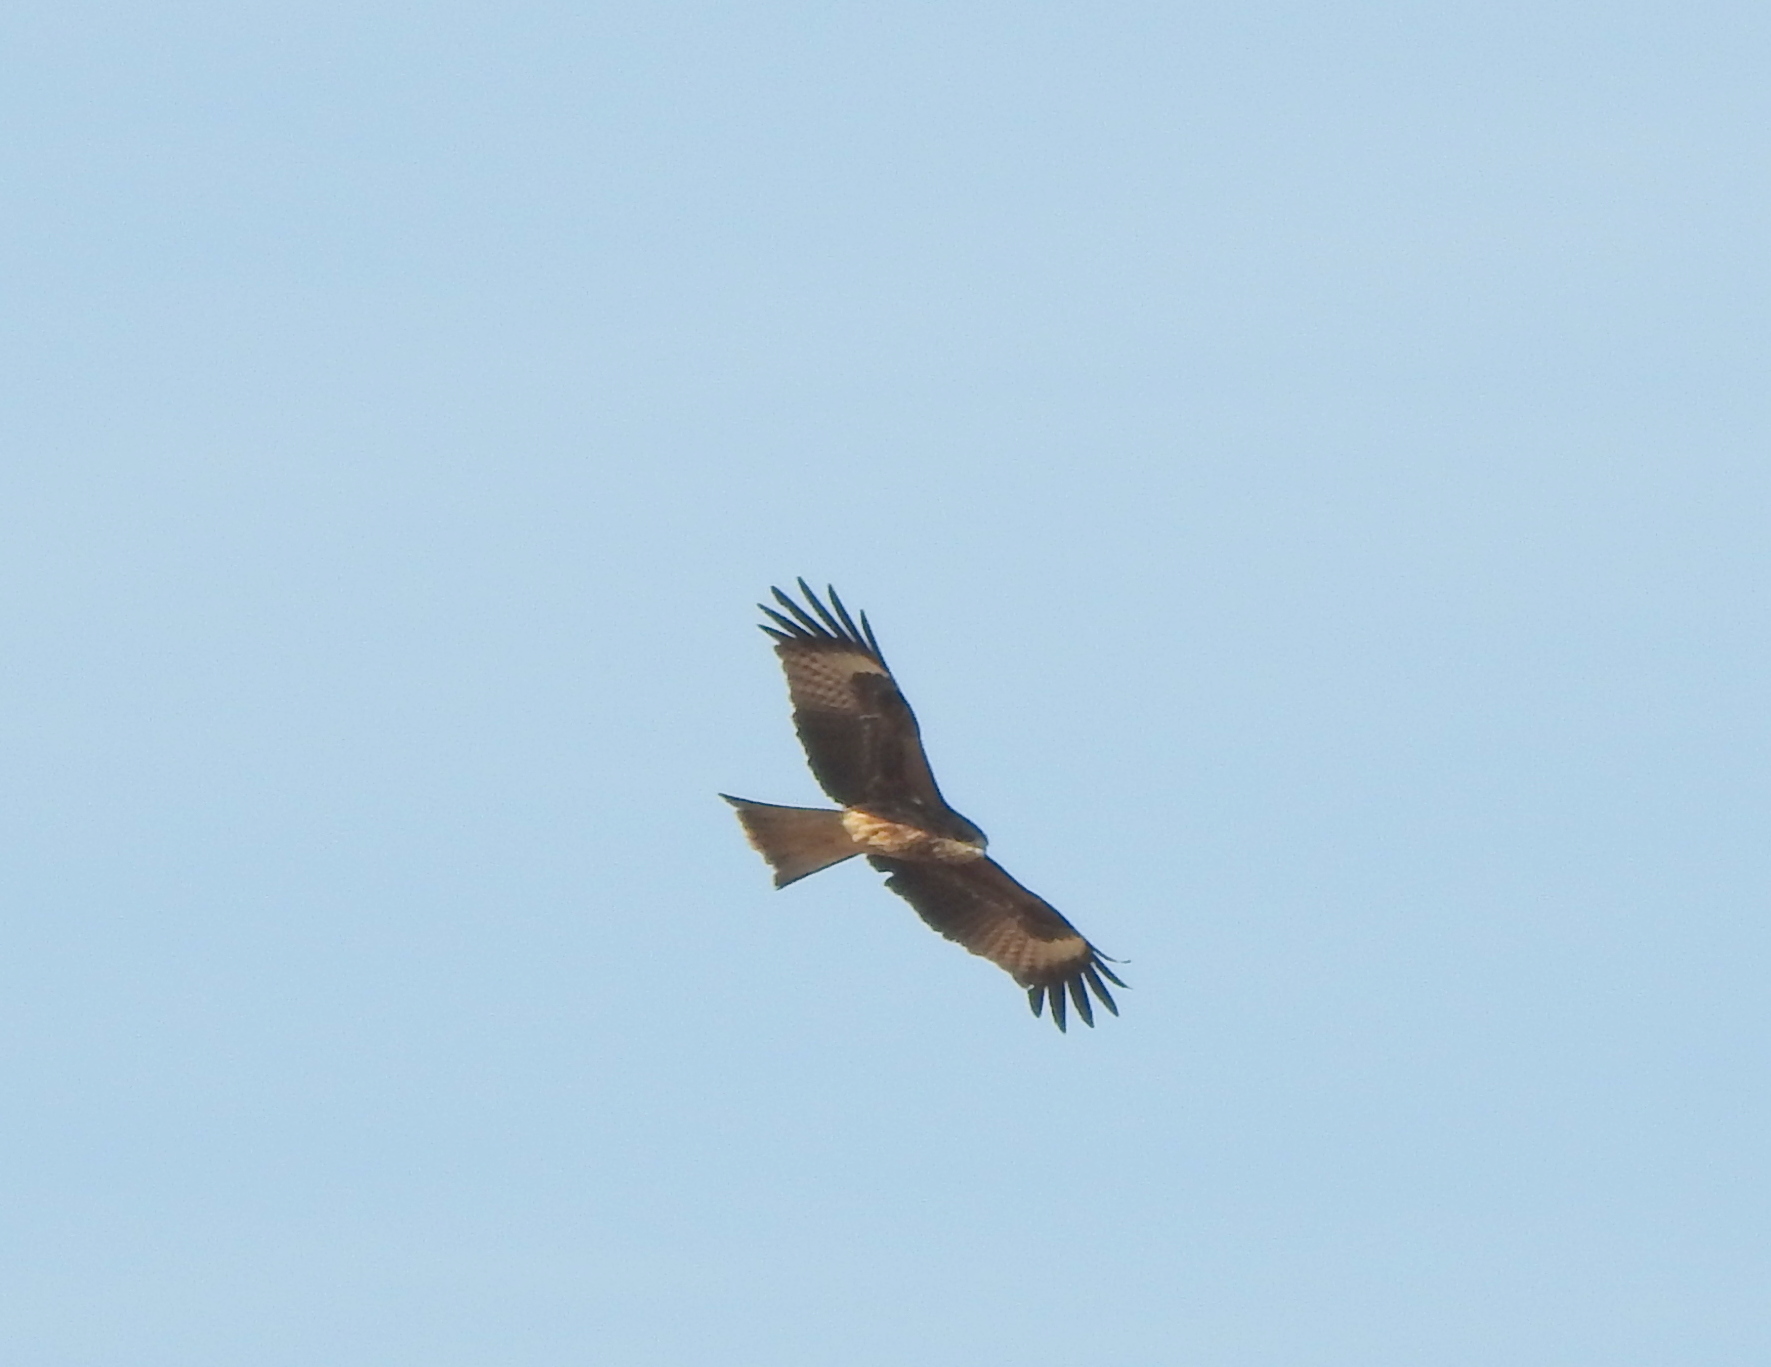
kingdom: Animalia
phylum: Chordata
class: Aves
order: Accipitriformes
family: Accipitridae
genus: Milvus
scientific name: Milvus migrans
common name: Black kite
